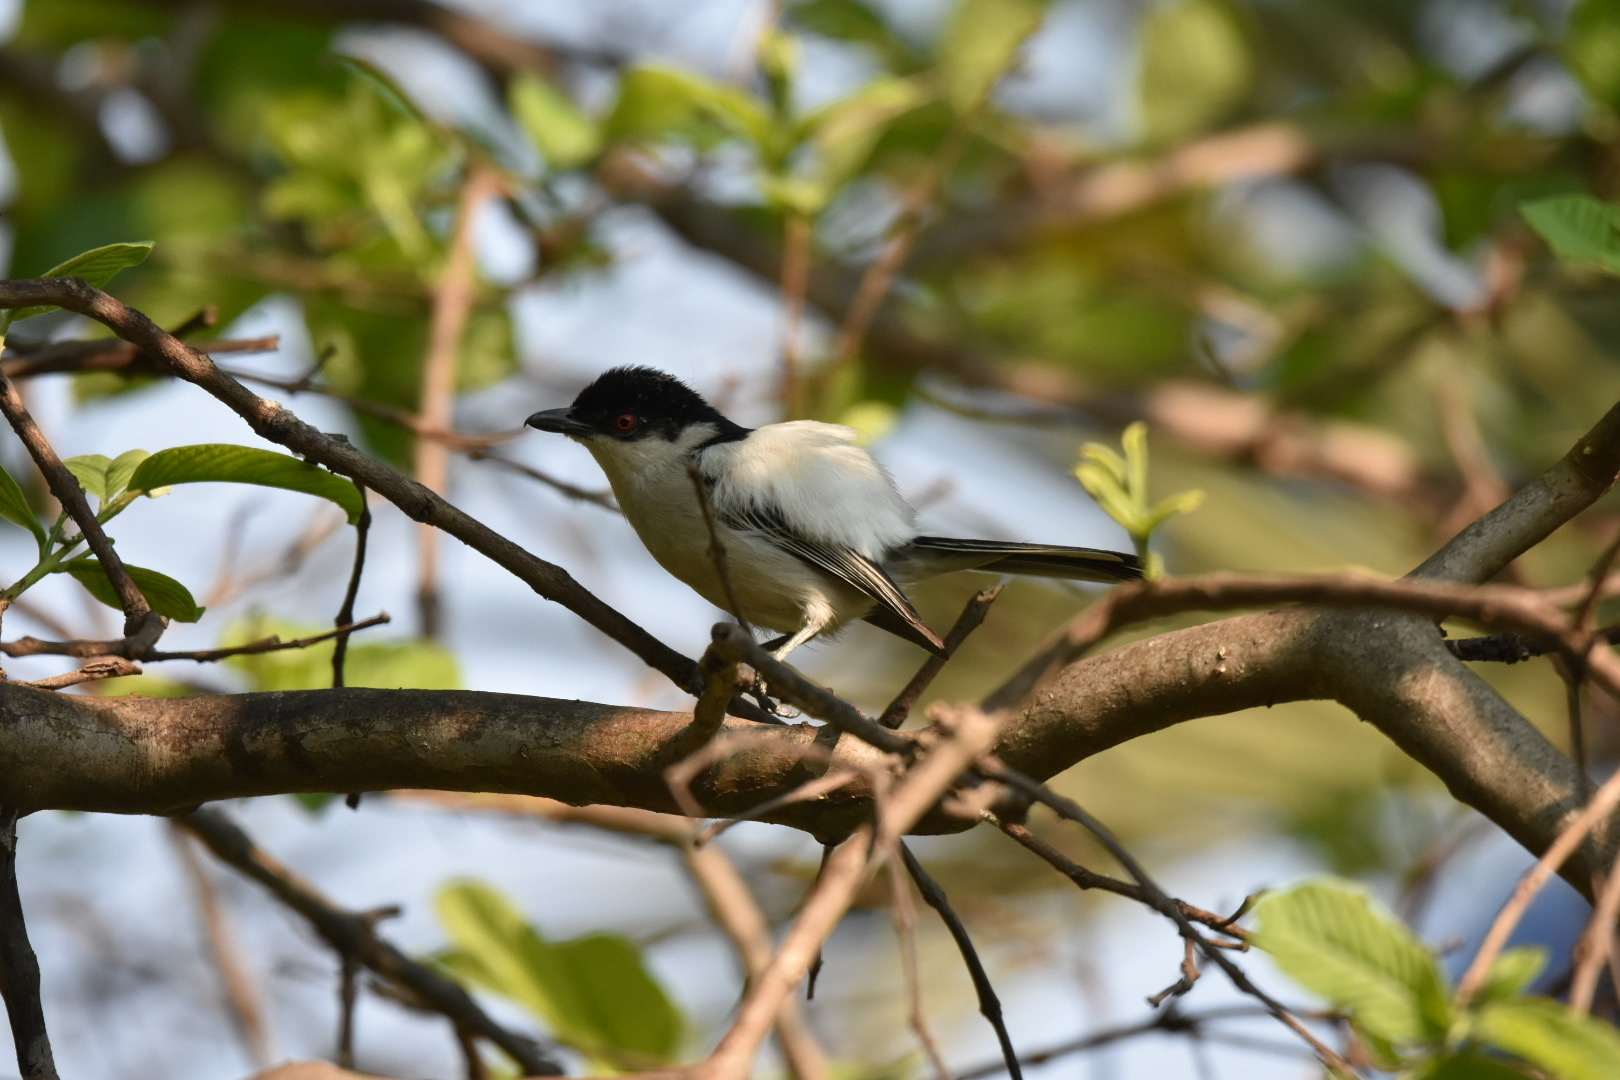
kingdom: Animalia
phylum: Chordata
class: Aves
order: Passeriformes
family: Malaconotidae
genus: Dryoscopus
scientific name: Dryoscopus cubla
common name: Black-backed puffback
